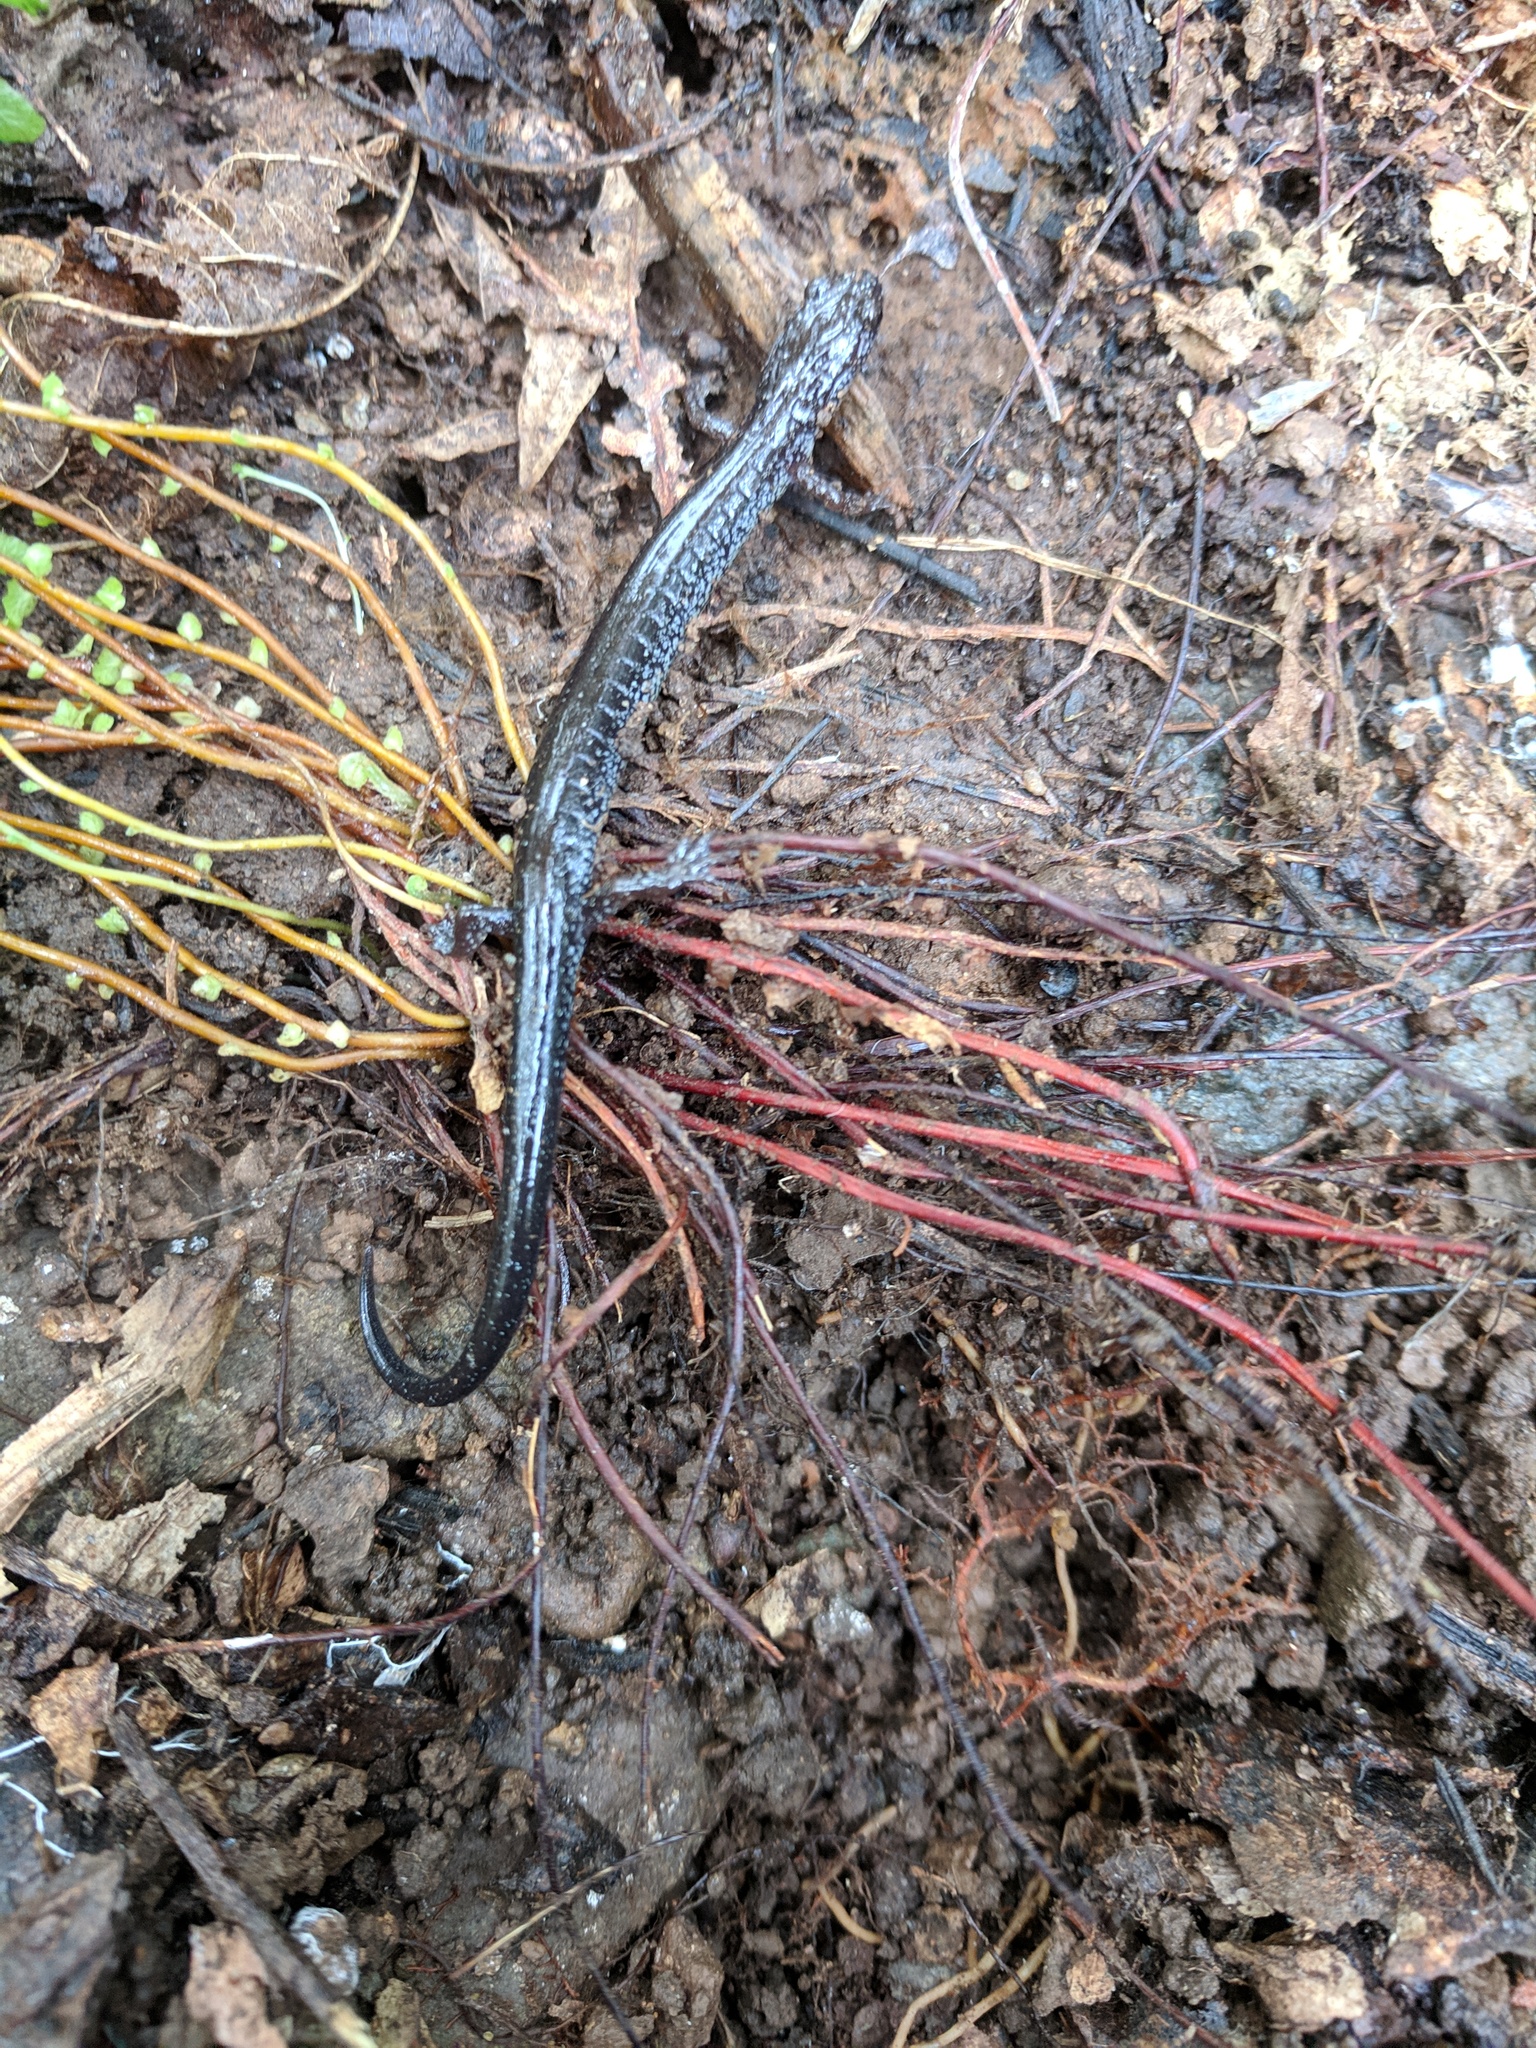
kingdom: Animalia
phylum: Chordata
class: Amphibia
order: Caudata
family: Plethodontidae
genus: Plethodon
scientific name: Plethodon cinereus
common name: Redback salamander
